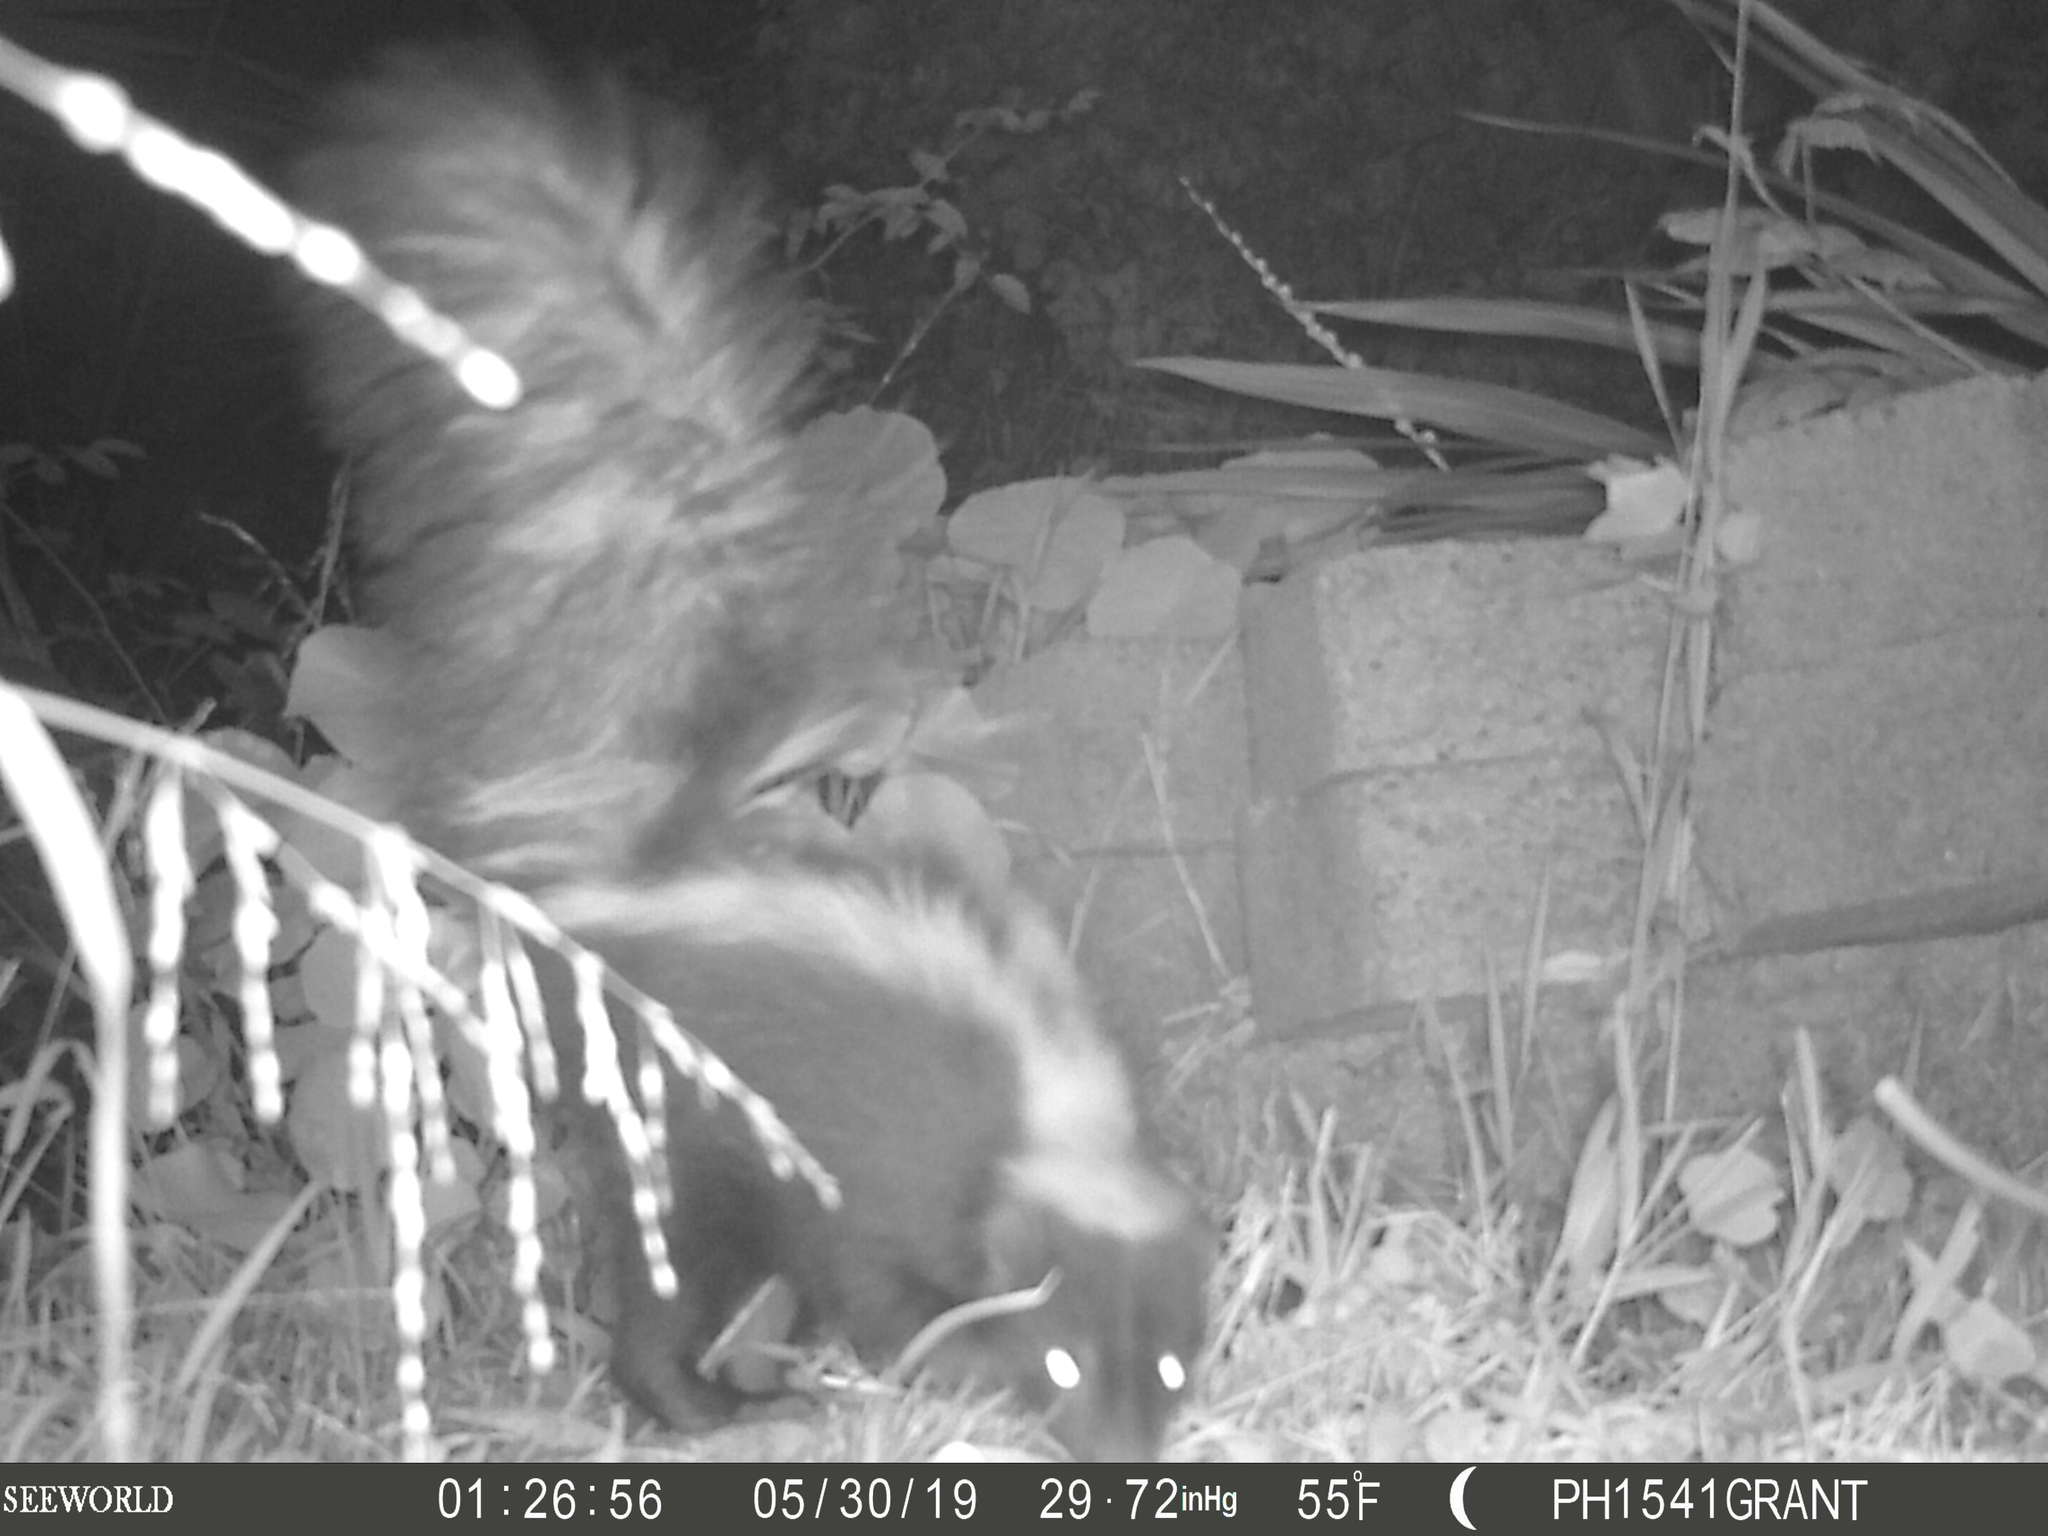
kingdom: Animalia
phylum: Chordata
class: Mammalia
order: Carnivora
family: Mephitidae
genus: Mephitis
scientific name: Mephitis mephitis
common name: Striped skunk
